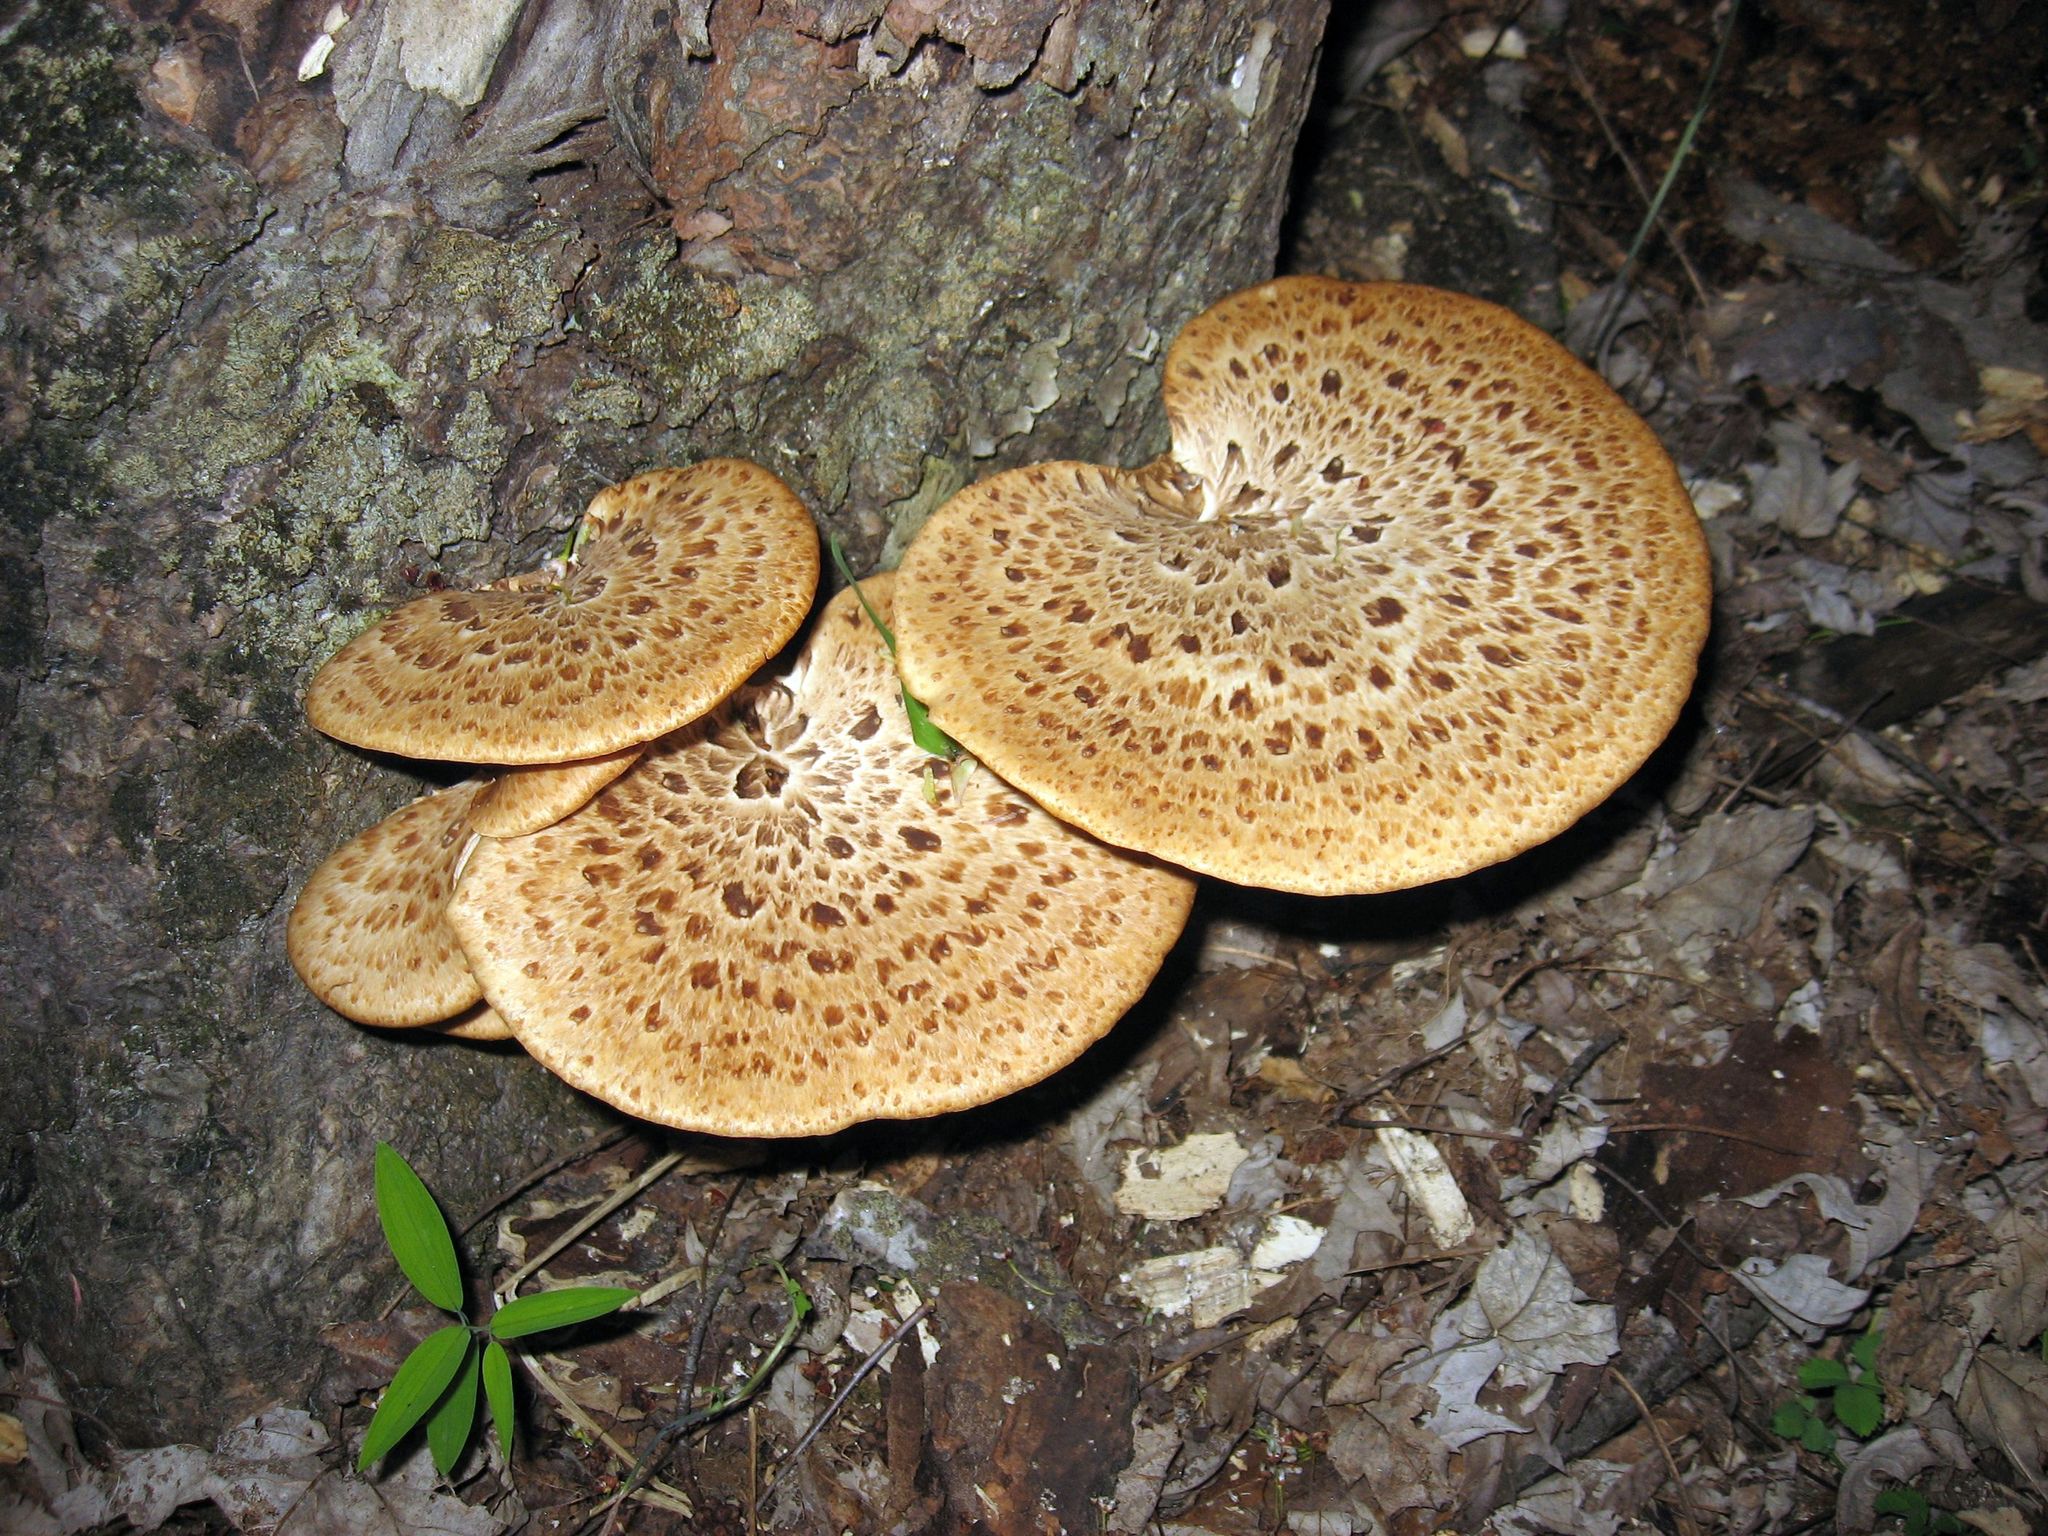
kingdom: Fungi
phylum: Basidiomycota
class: Agaricomycetes
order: Polyporales
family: Polyporaceae
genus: Cerioporus
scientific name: Cerioporus squamosus
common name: Dryad's saddle
